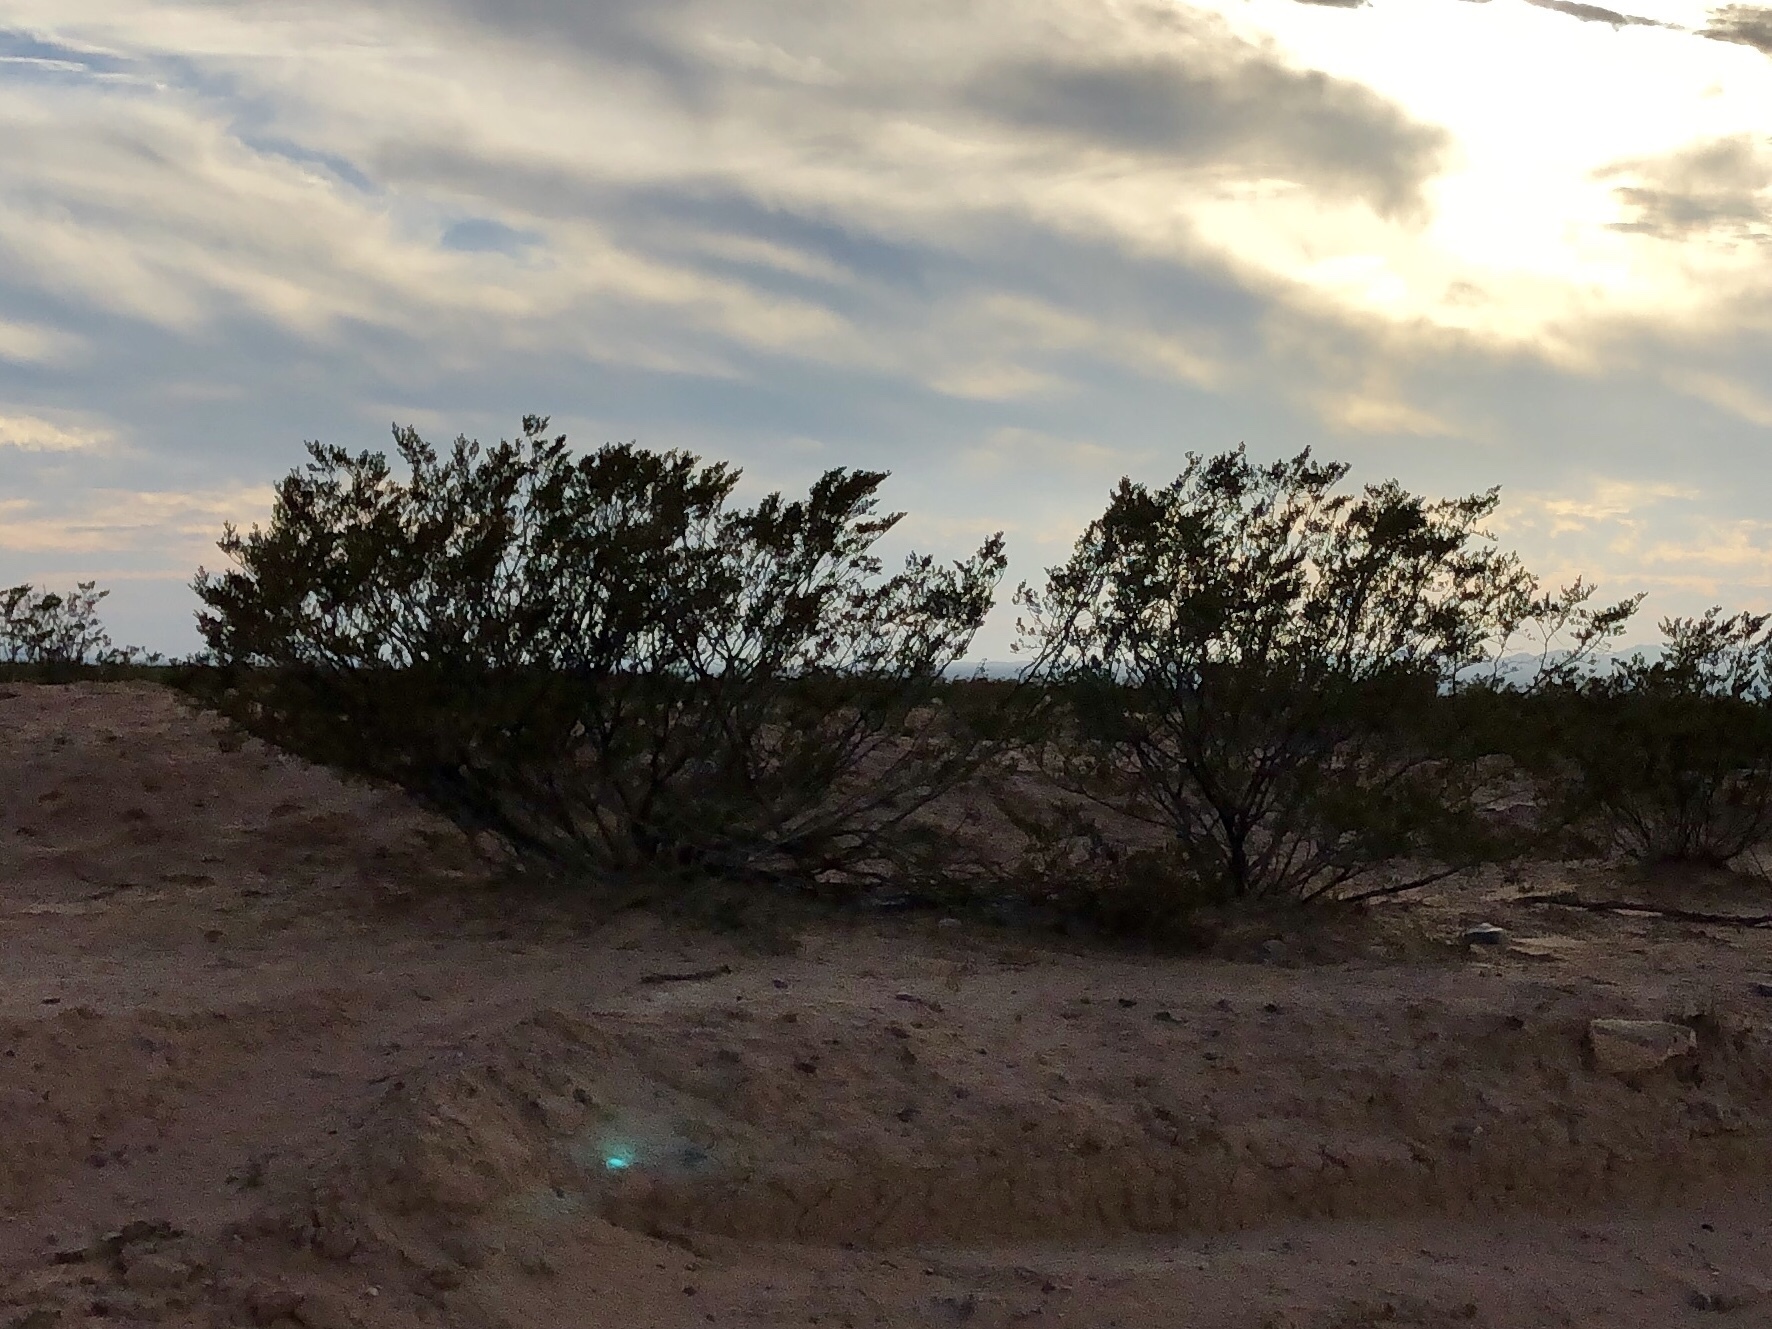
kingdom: Plantae
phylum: Tracheophyta
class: Magnoliopsida
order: Zygophyllales
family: Zygophyllaceae
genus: Larrea
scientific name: Larrea tridentata
